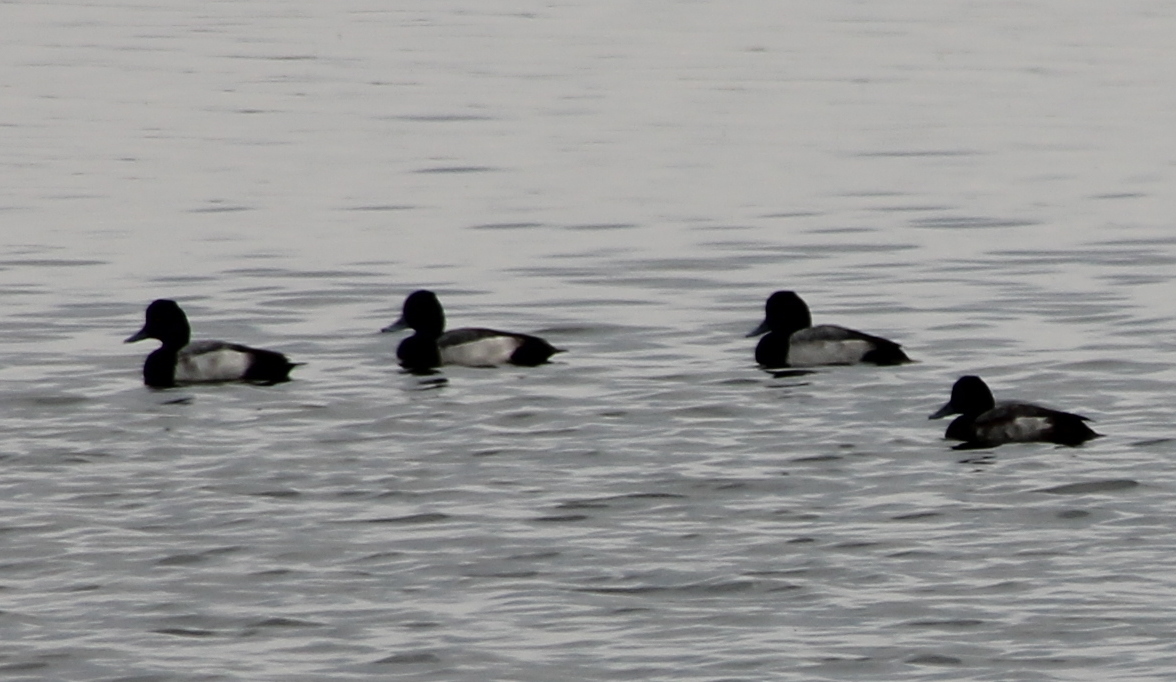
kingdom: Animalia
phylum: Chordata
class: Aves
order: Anseriformes
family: Anatidae
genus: Aythya
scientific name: Aythya affinis
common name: Lesser scaup
